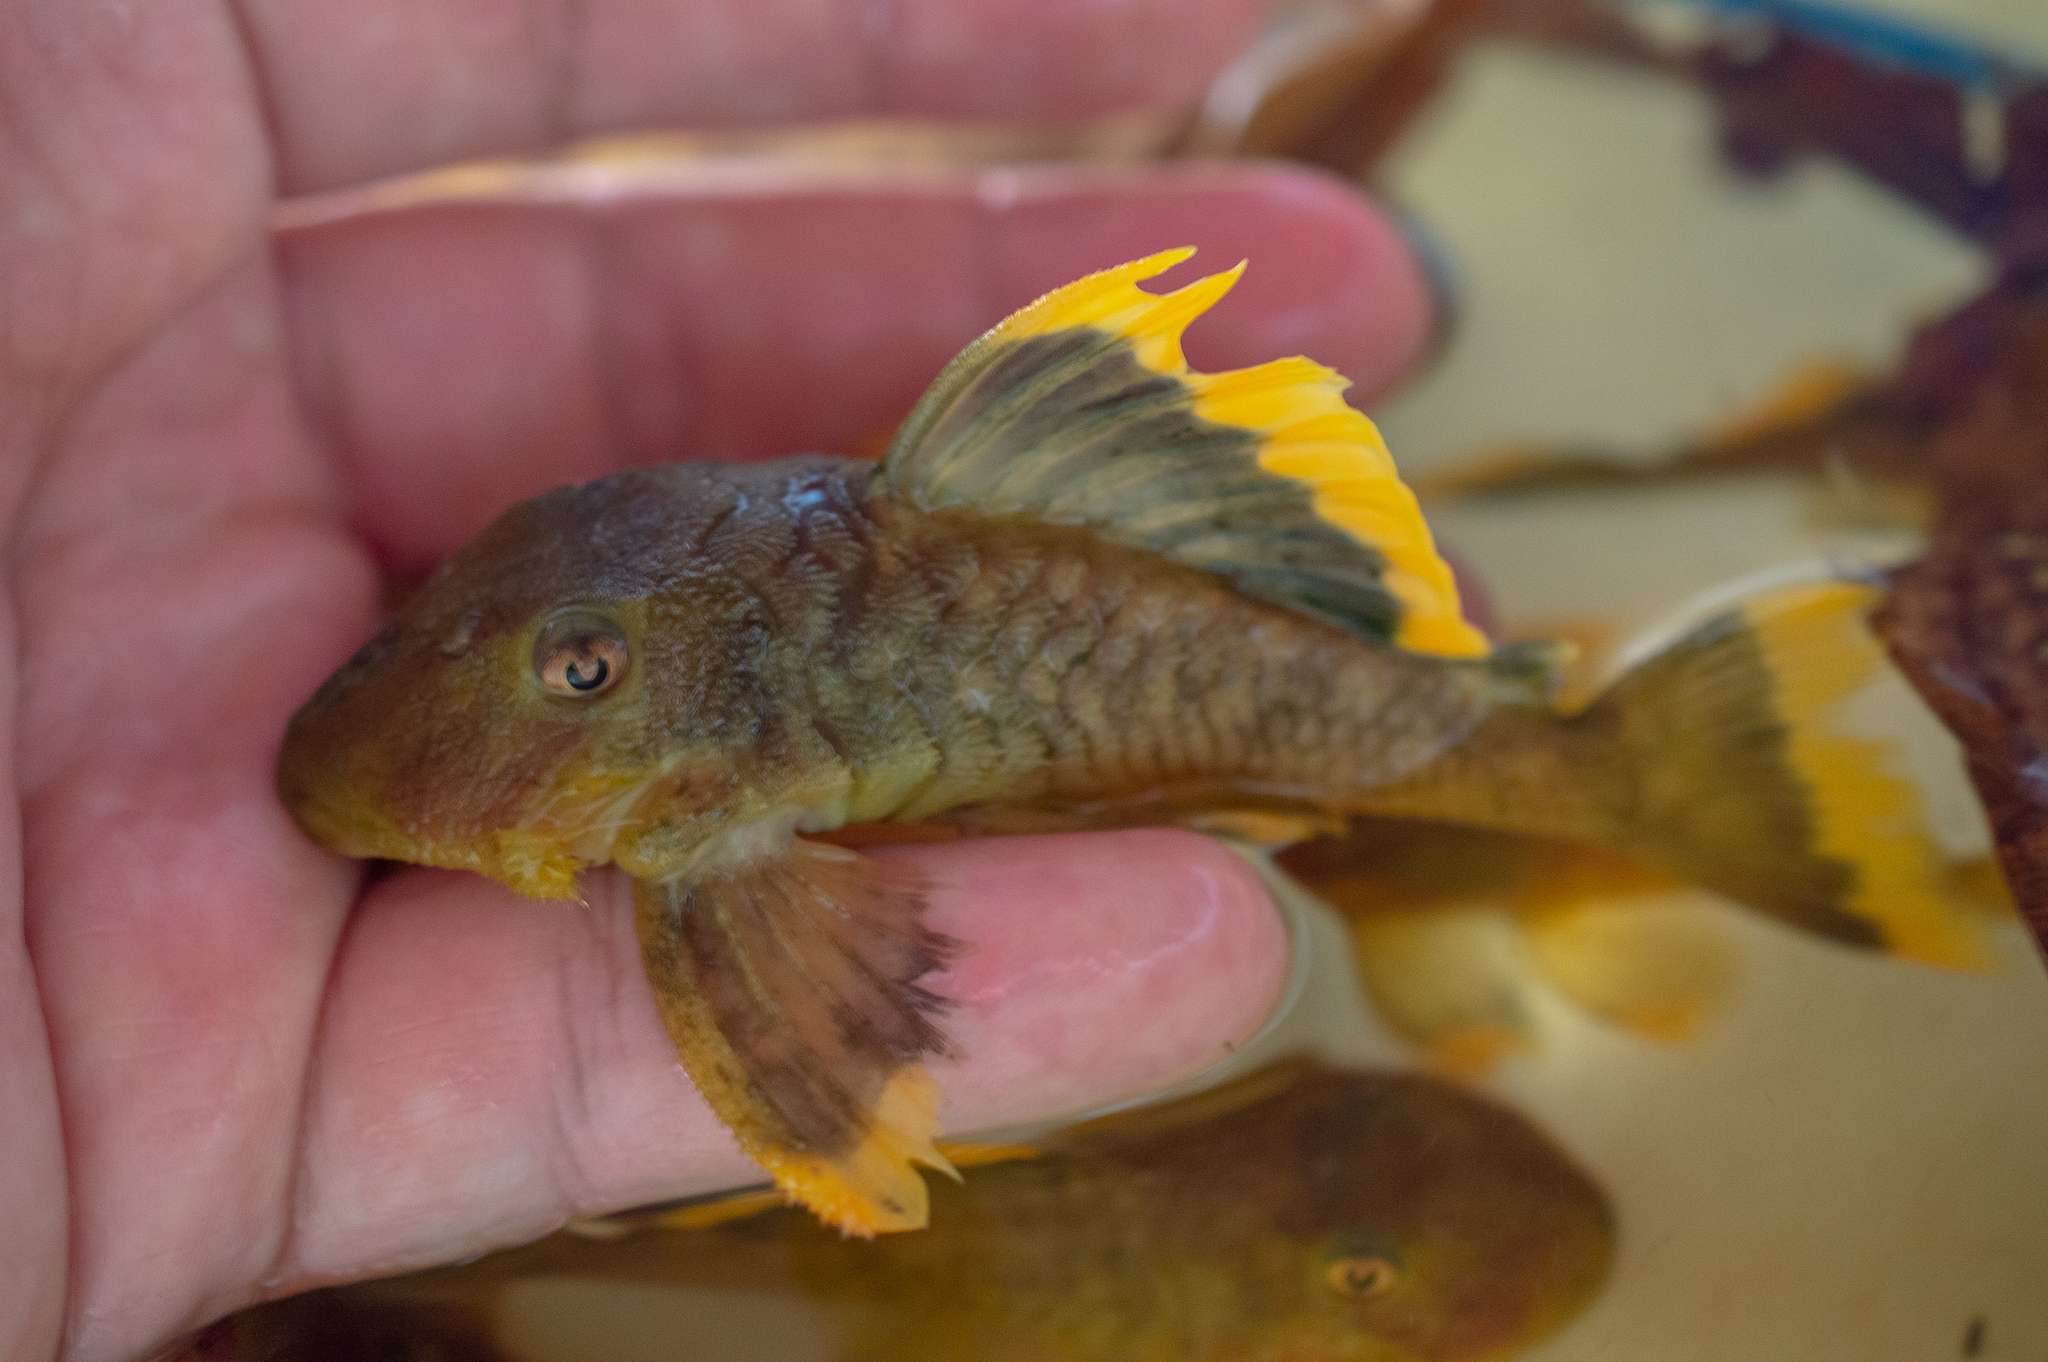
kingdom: Animalia
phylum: Chordata
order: Siluriformes
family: Loricariidae
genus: Baryancistrus
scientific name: Baryancistrus chrysolomus
